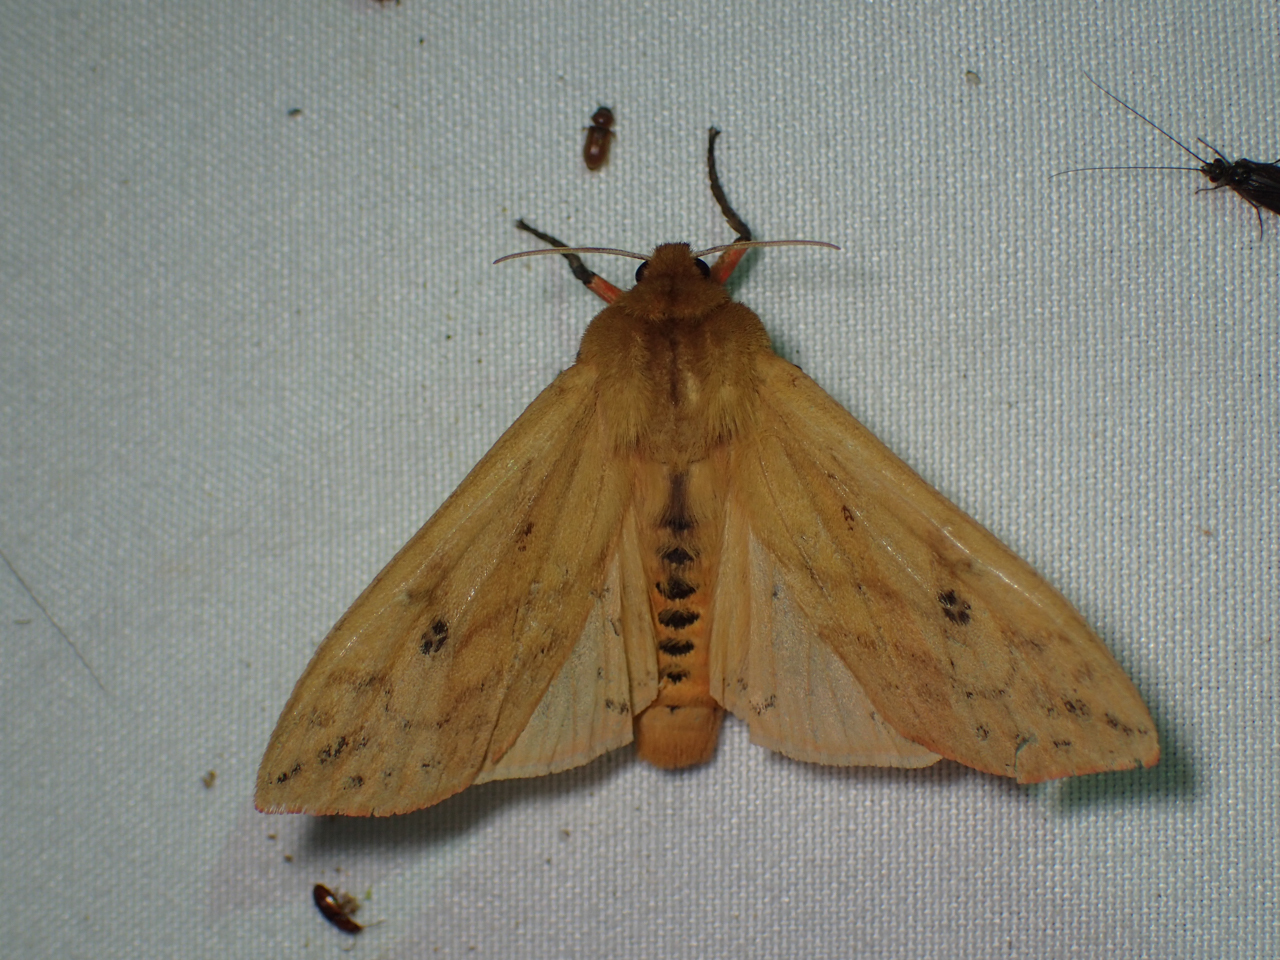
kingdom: Animalia
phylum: Arthropoda
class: Insecta
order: Lepidoptera
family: Erebidae
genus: Pyrrharctia
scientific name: Pyrrharctia isabella
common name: Isabella tiger moth
